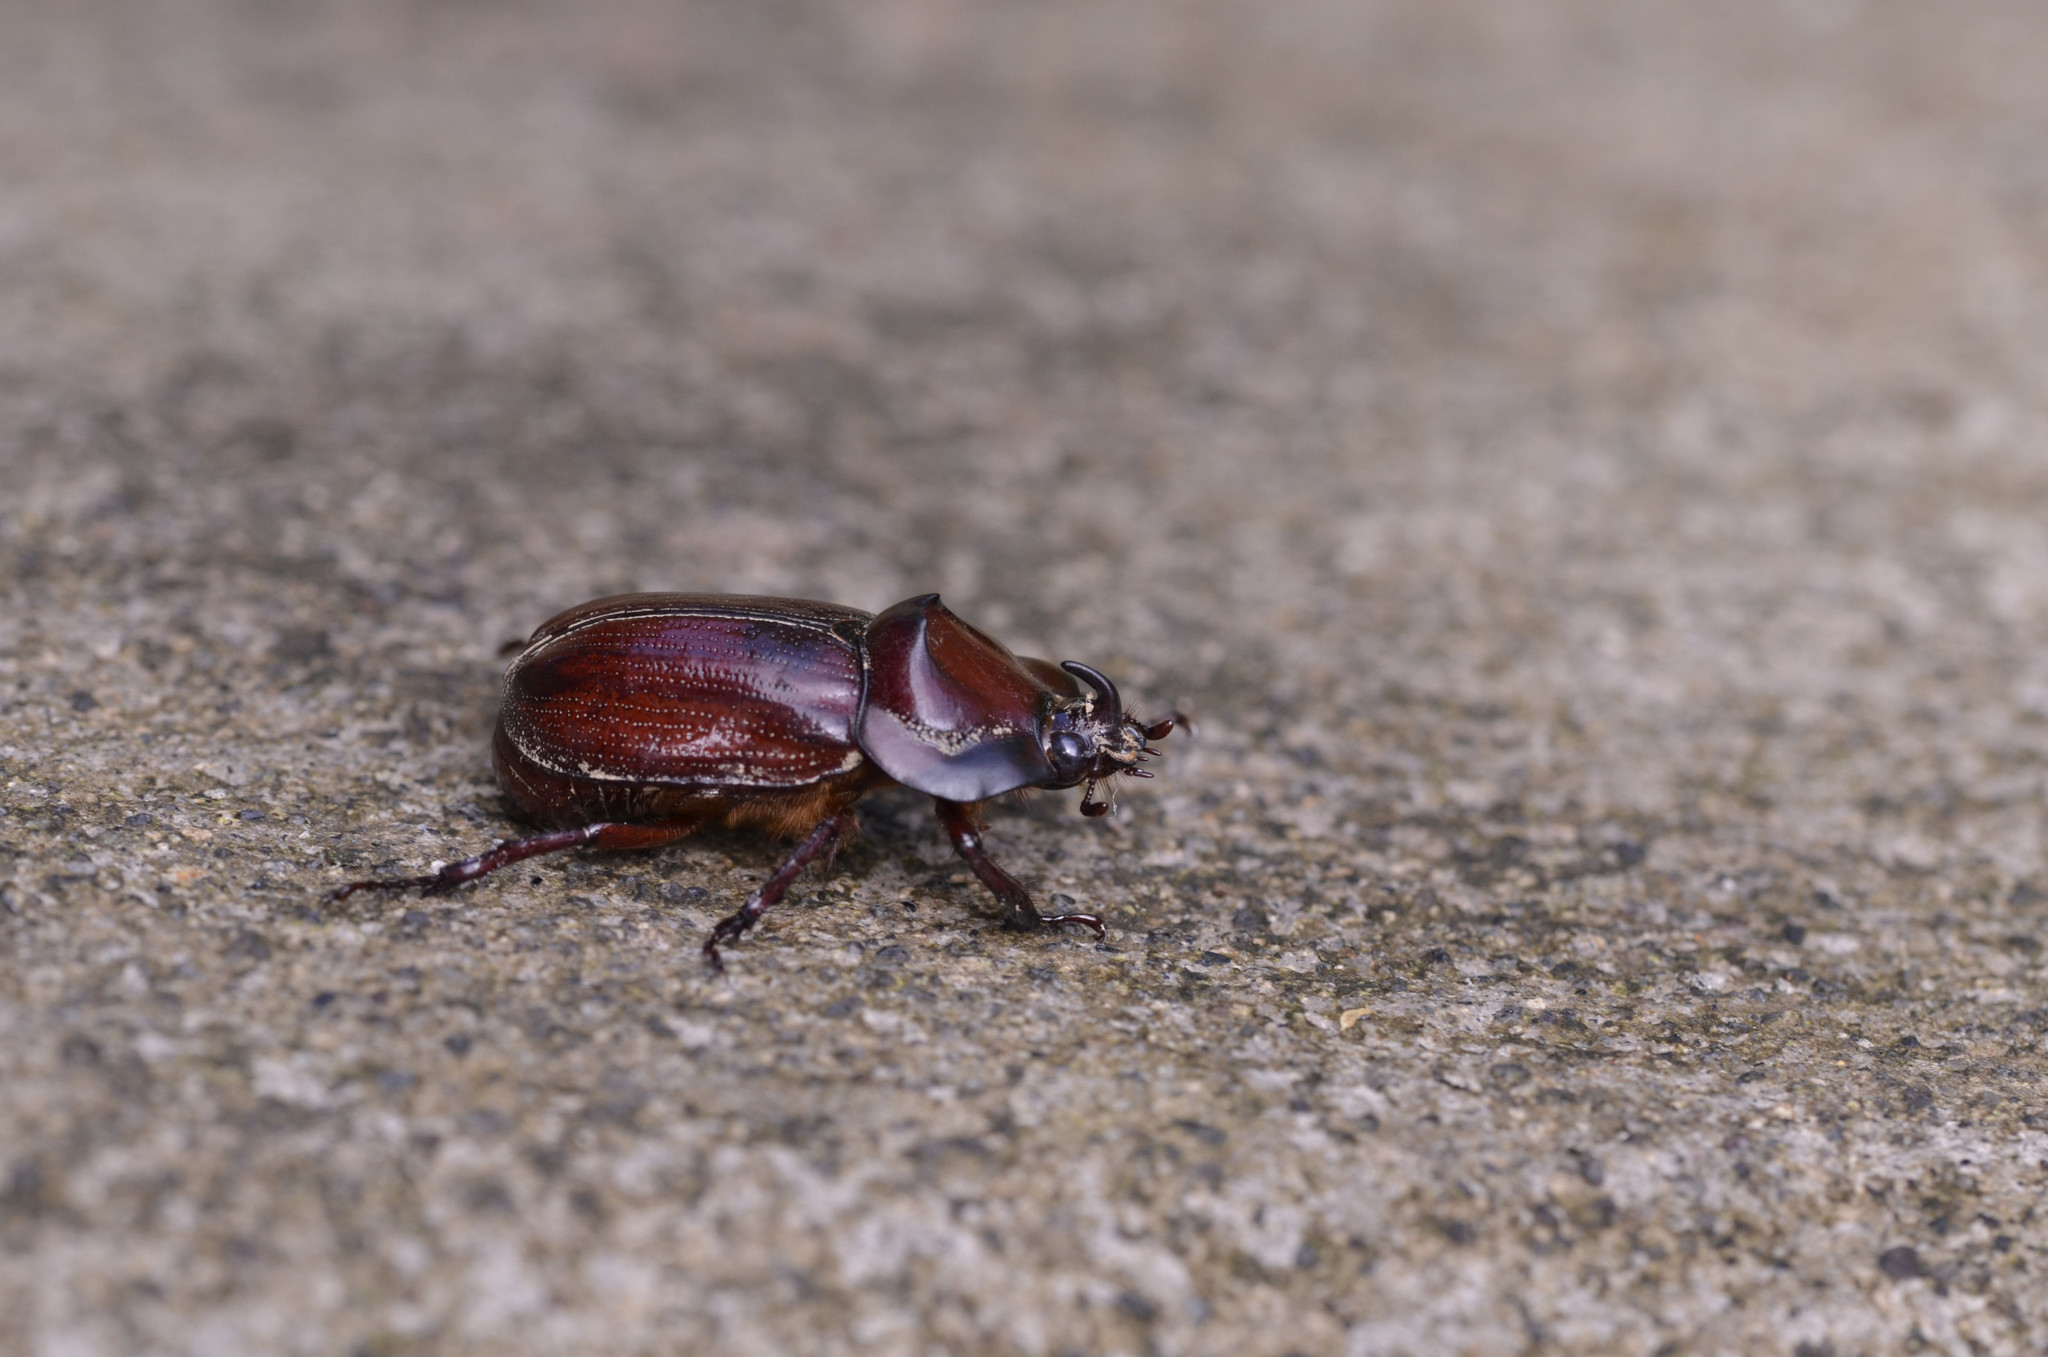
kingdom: Animalia
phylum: Arthropoda
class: Insecta
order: Coleoptera
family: Scarabaeidae
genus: Heterogomphus
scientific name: Heterogomphus curvicornis
